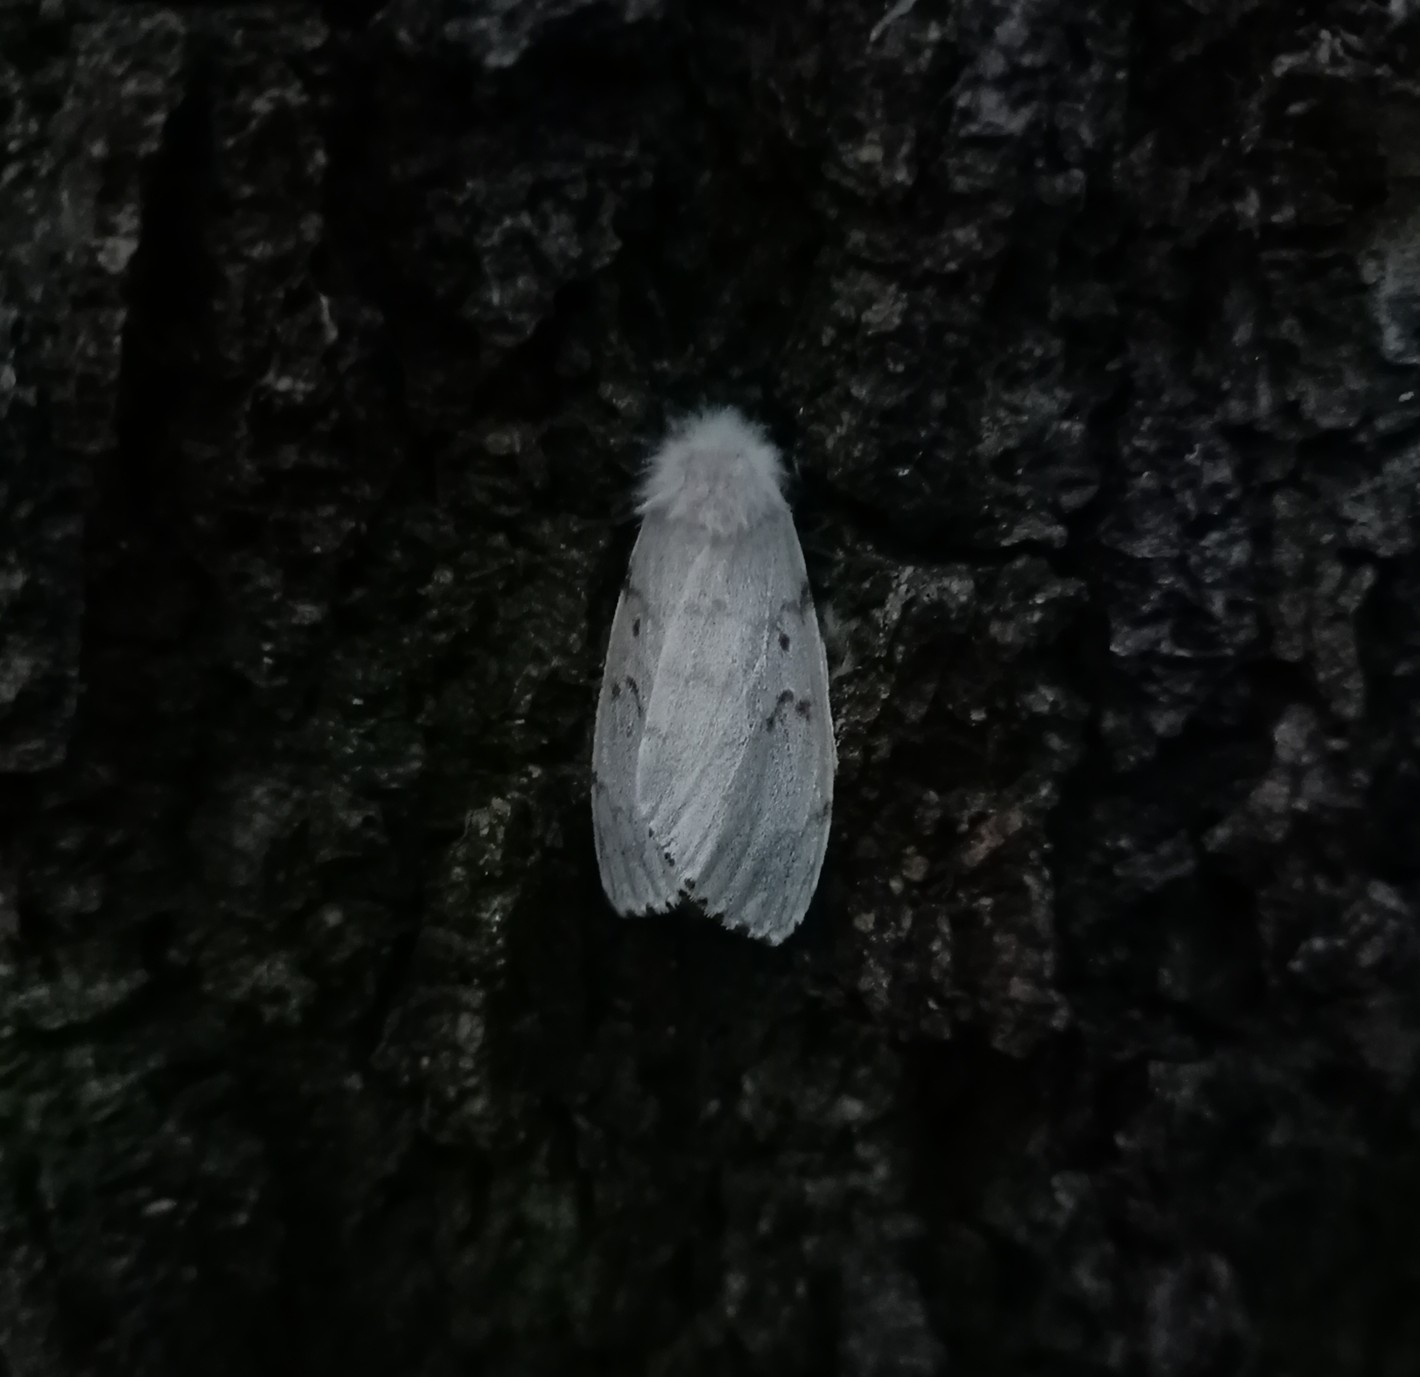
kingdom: Animalia
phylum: Arthropoda
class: Insecta
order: Lepidoptera
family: Erebidae
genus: Lymantria
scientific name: Lymantria dispar
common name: Gypsy moth
